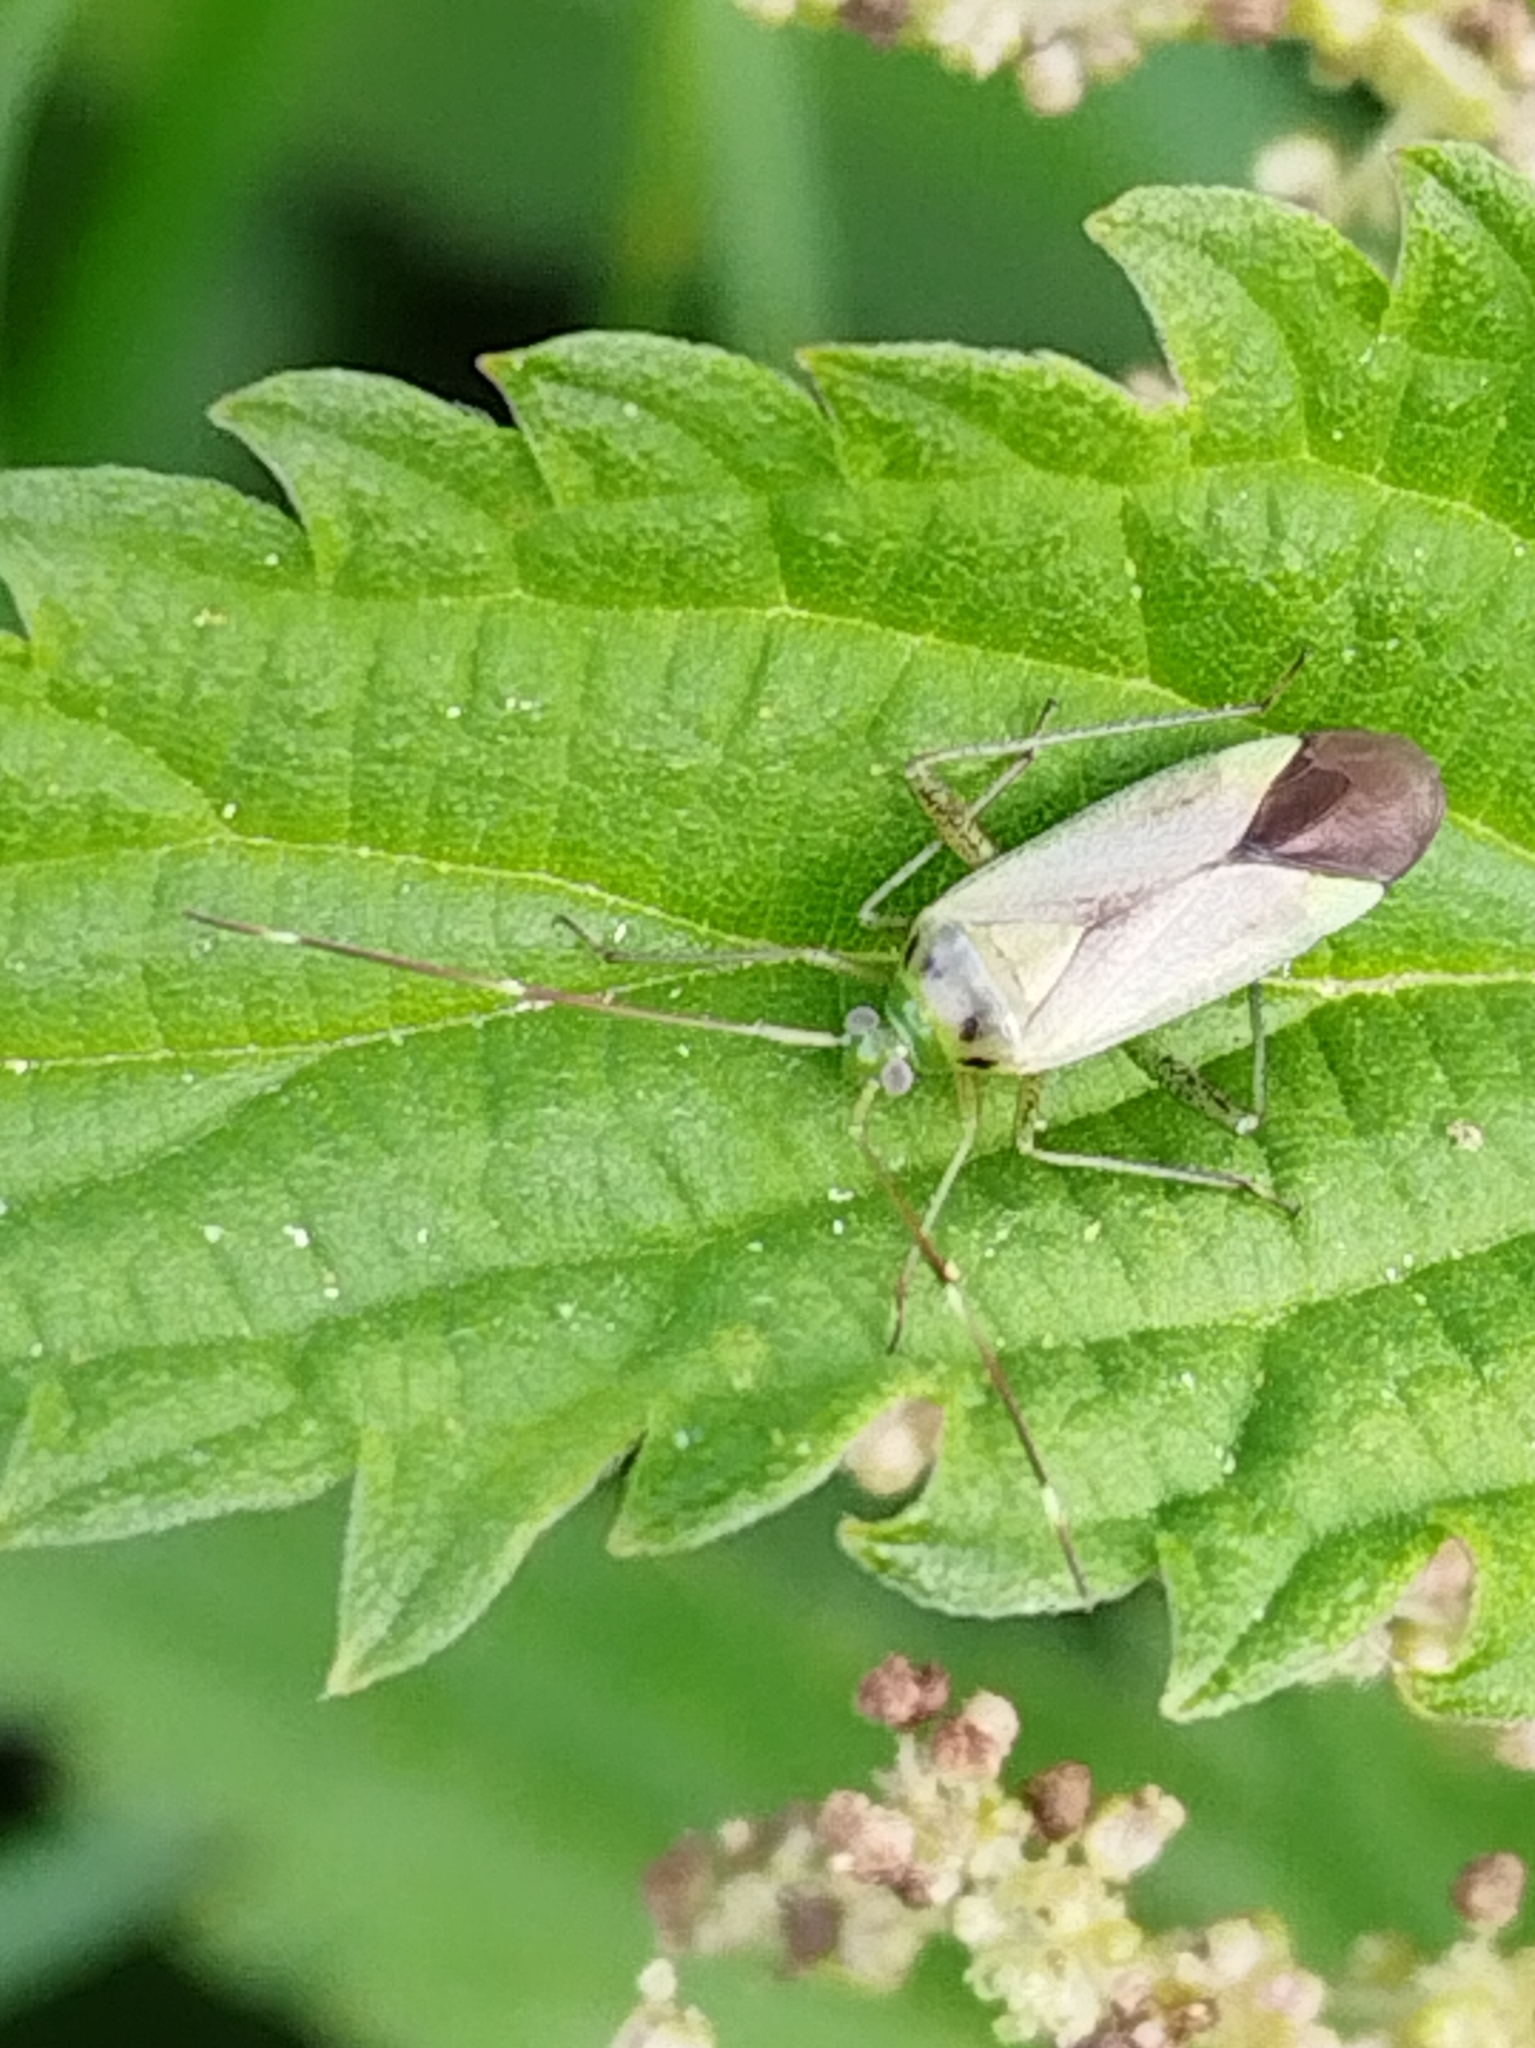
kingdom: Animalia
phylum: Arthropoda
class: Insecta
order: Hemiptera
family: Miridae
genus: Adelphocoris
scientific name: Adelphocoris quadripunctatus
